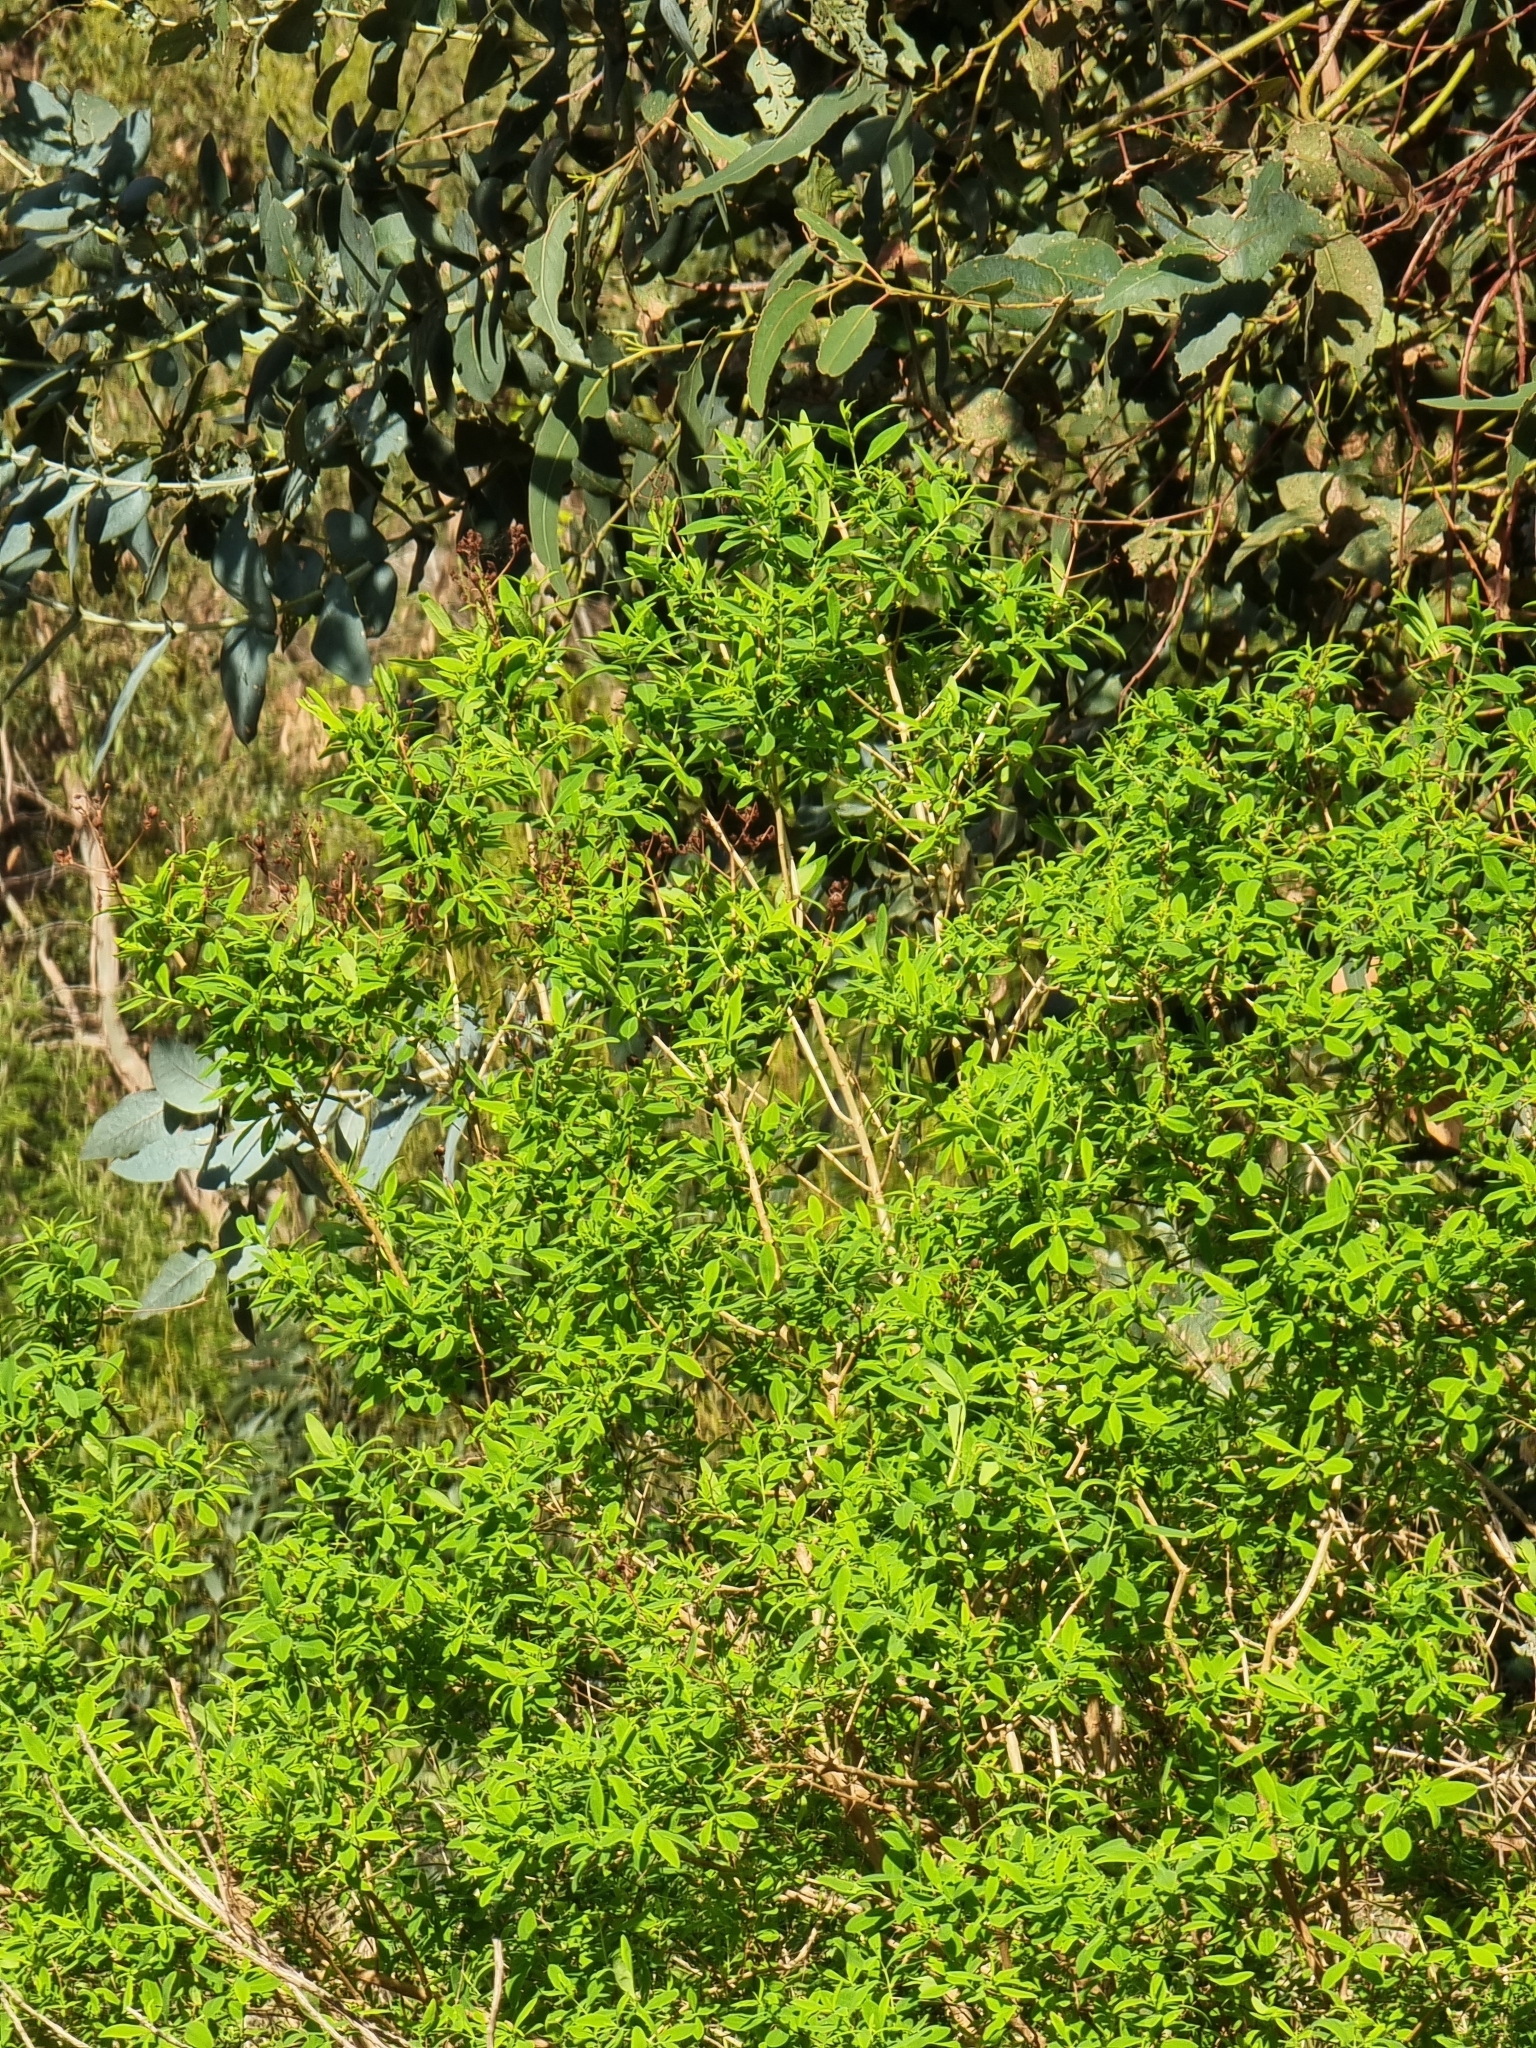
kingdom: Plantae
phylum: Tracheophyta
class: Magnoliopsida
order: Malpighiales
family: Hypericaceae
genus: Hypericum
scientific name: Hypericum canariense
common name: Canary island st. johnswort
